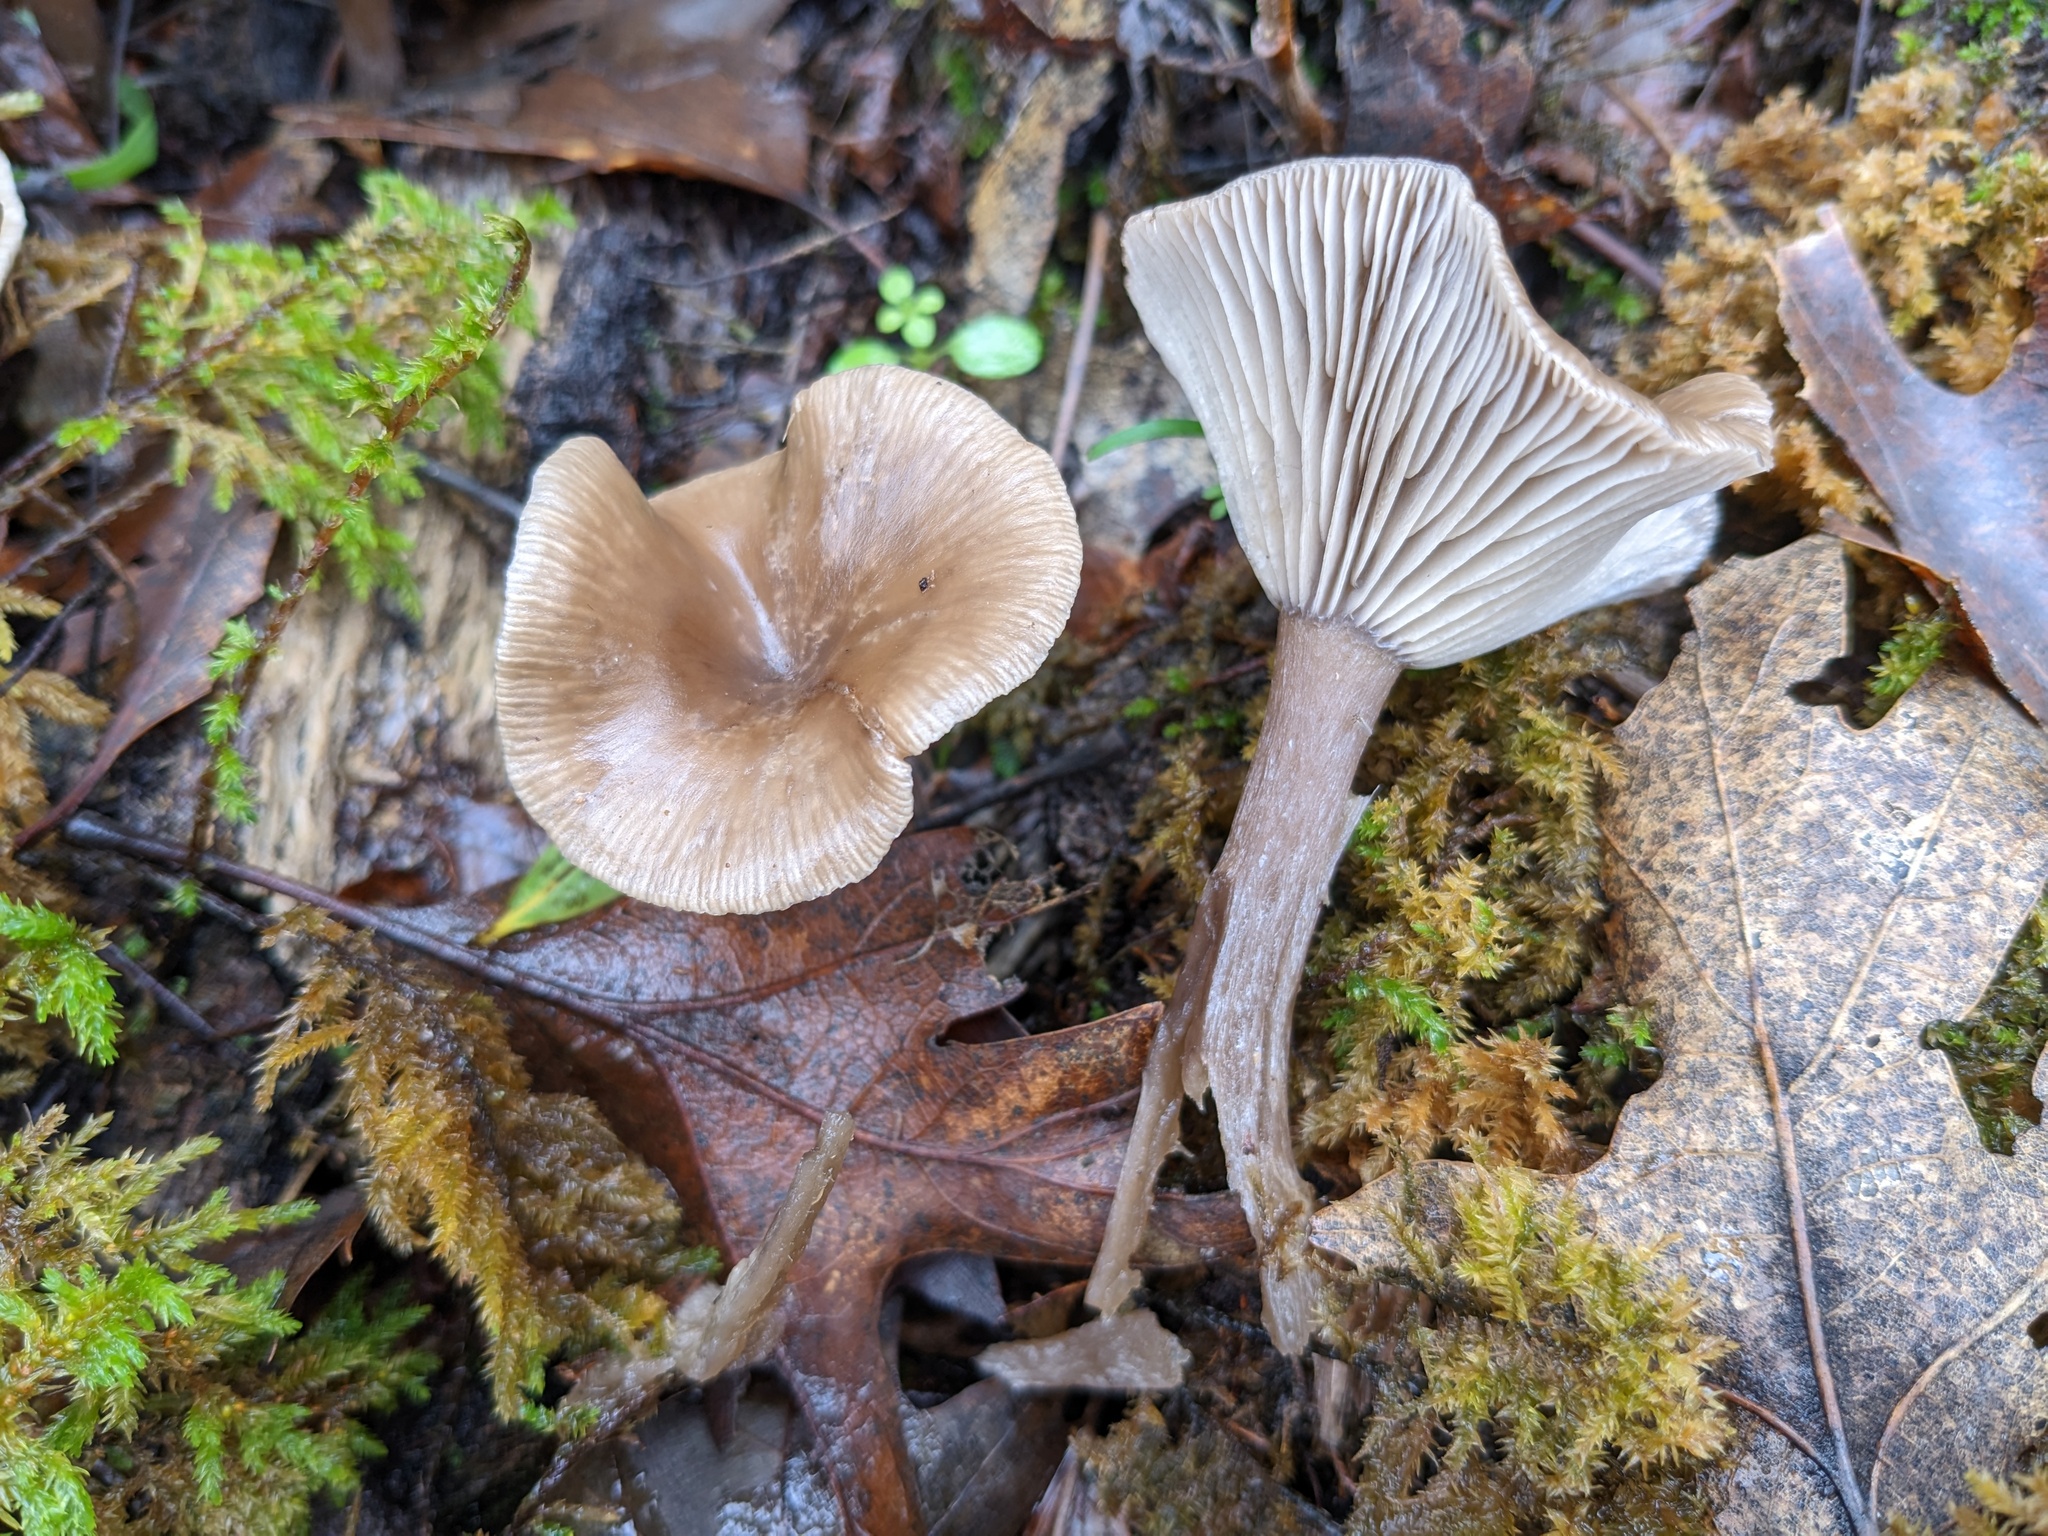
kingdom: Fungi
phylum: Basidiomycota
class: Agaricomycetes
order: Agaricales
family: Pseudoclitocybaceae
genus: Pseudoclitocybe
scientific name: Pseudoclitocybe cyathiformis
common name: Goblet
